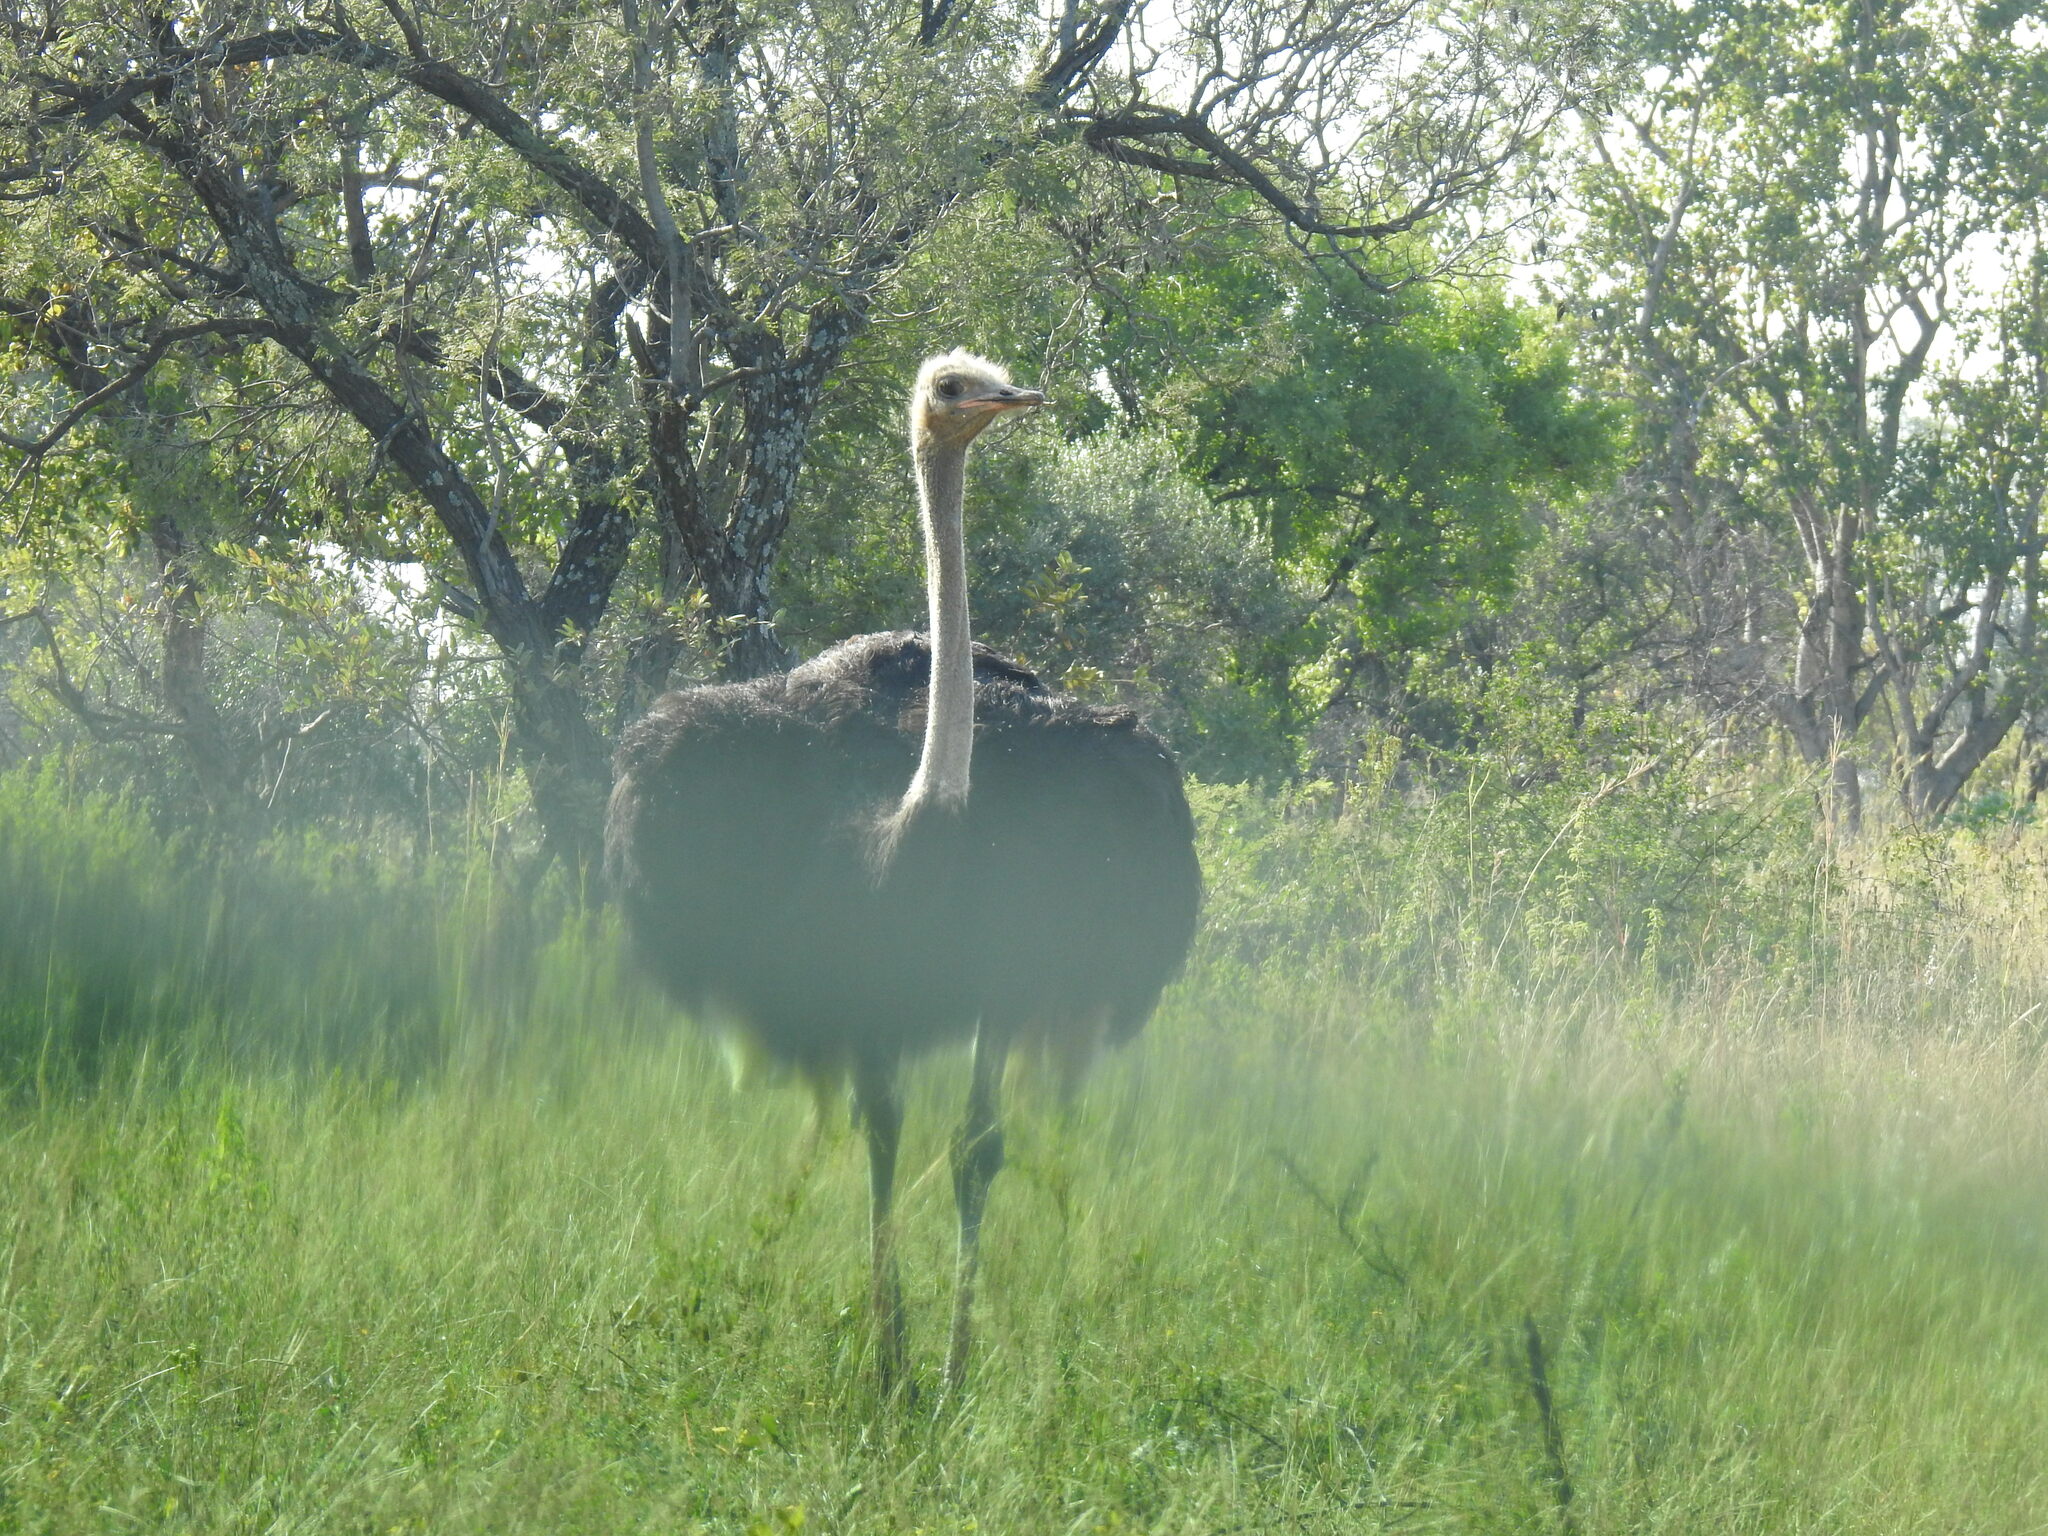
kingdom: Animalia
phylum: Chordata
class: Aves
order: Struthioniformes
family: Struthionidae
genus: Struthio
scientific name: Struthio camelus
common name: Common ostrich
